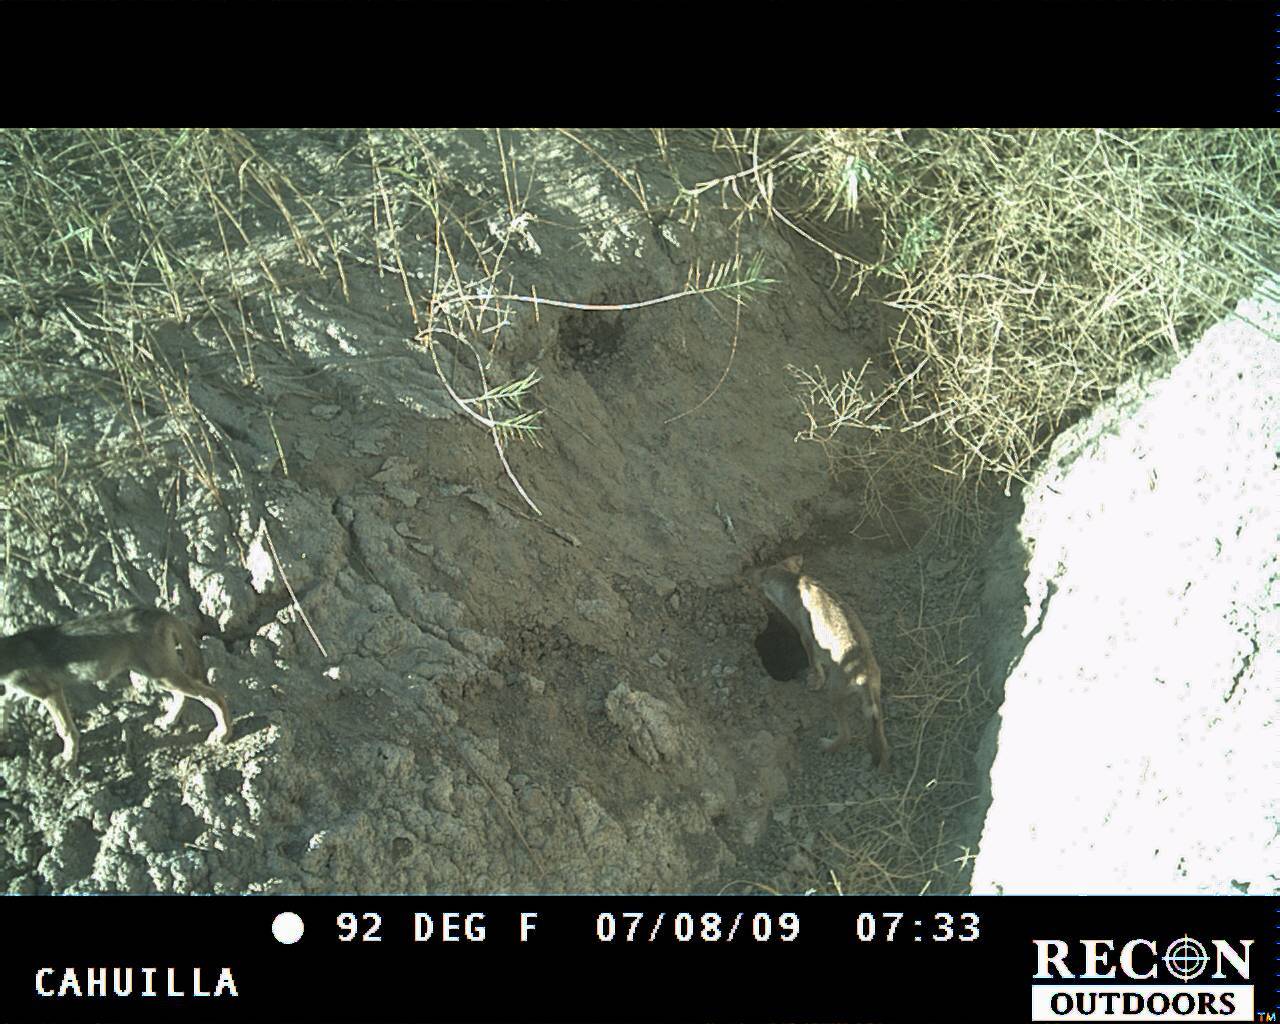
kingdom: Animalia
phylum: Chordata
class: Mammalia
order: Carnivora
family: Canidae
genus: Canis
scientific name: Canis latrans
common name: Coyote
